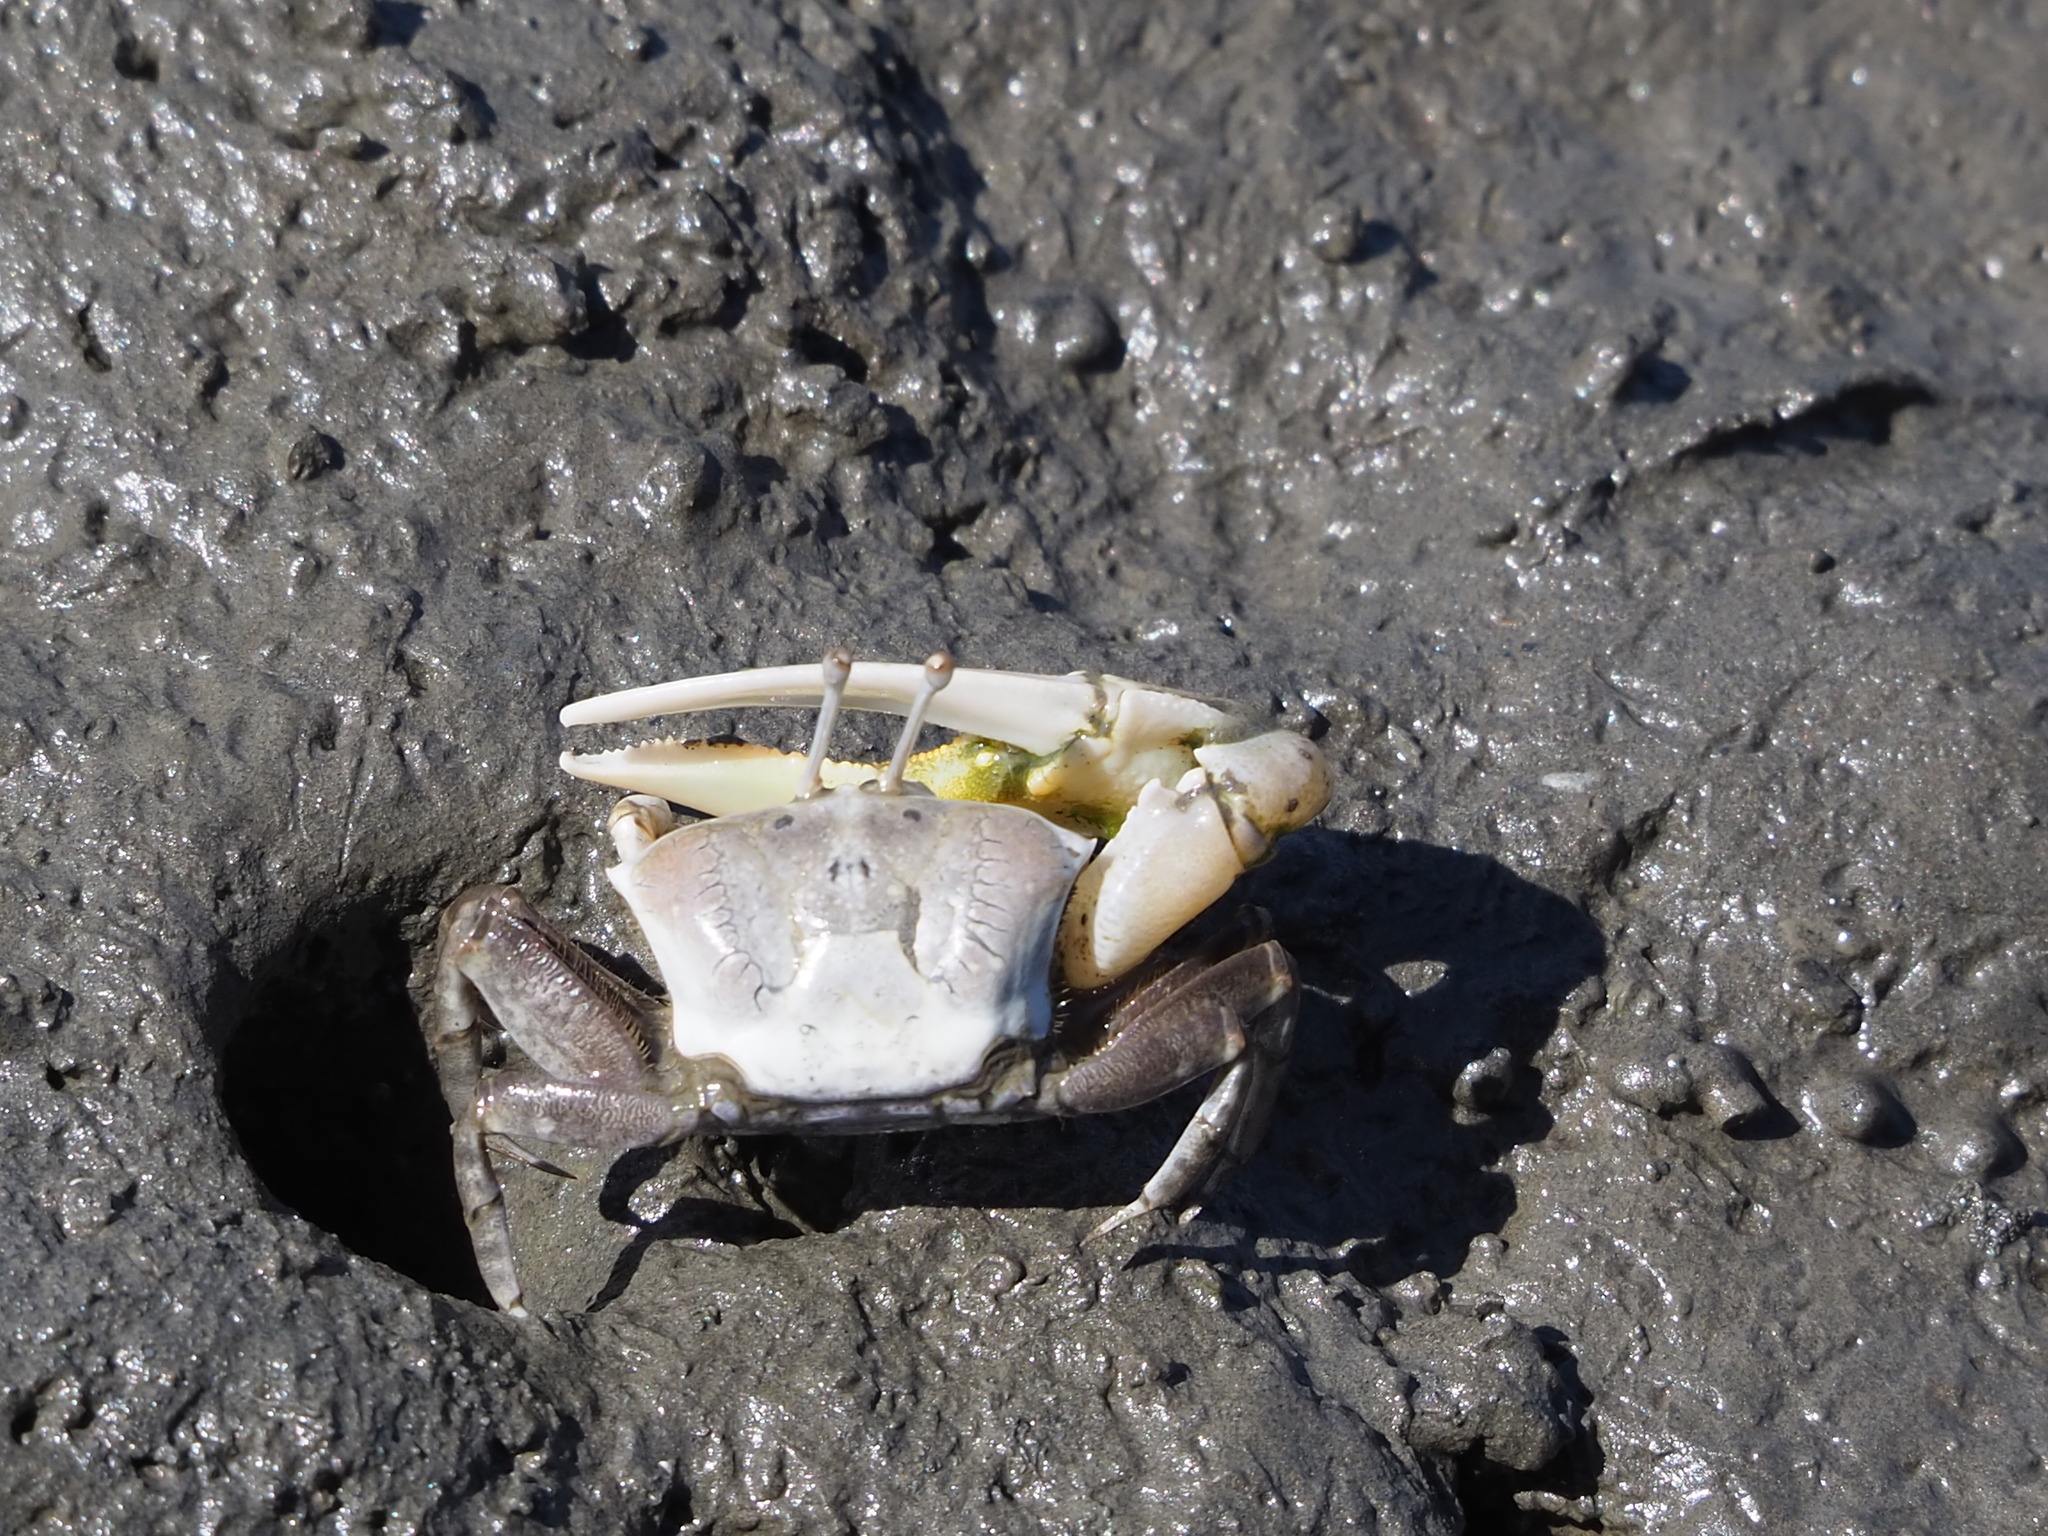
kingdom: Animalia
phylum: Arthropoda
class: Malacostraca
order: Decapoda
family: Ocypodidae
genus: Gelasimus
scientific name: Gelasimus borealis
